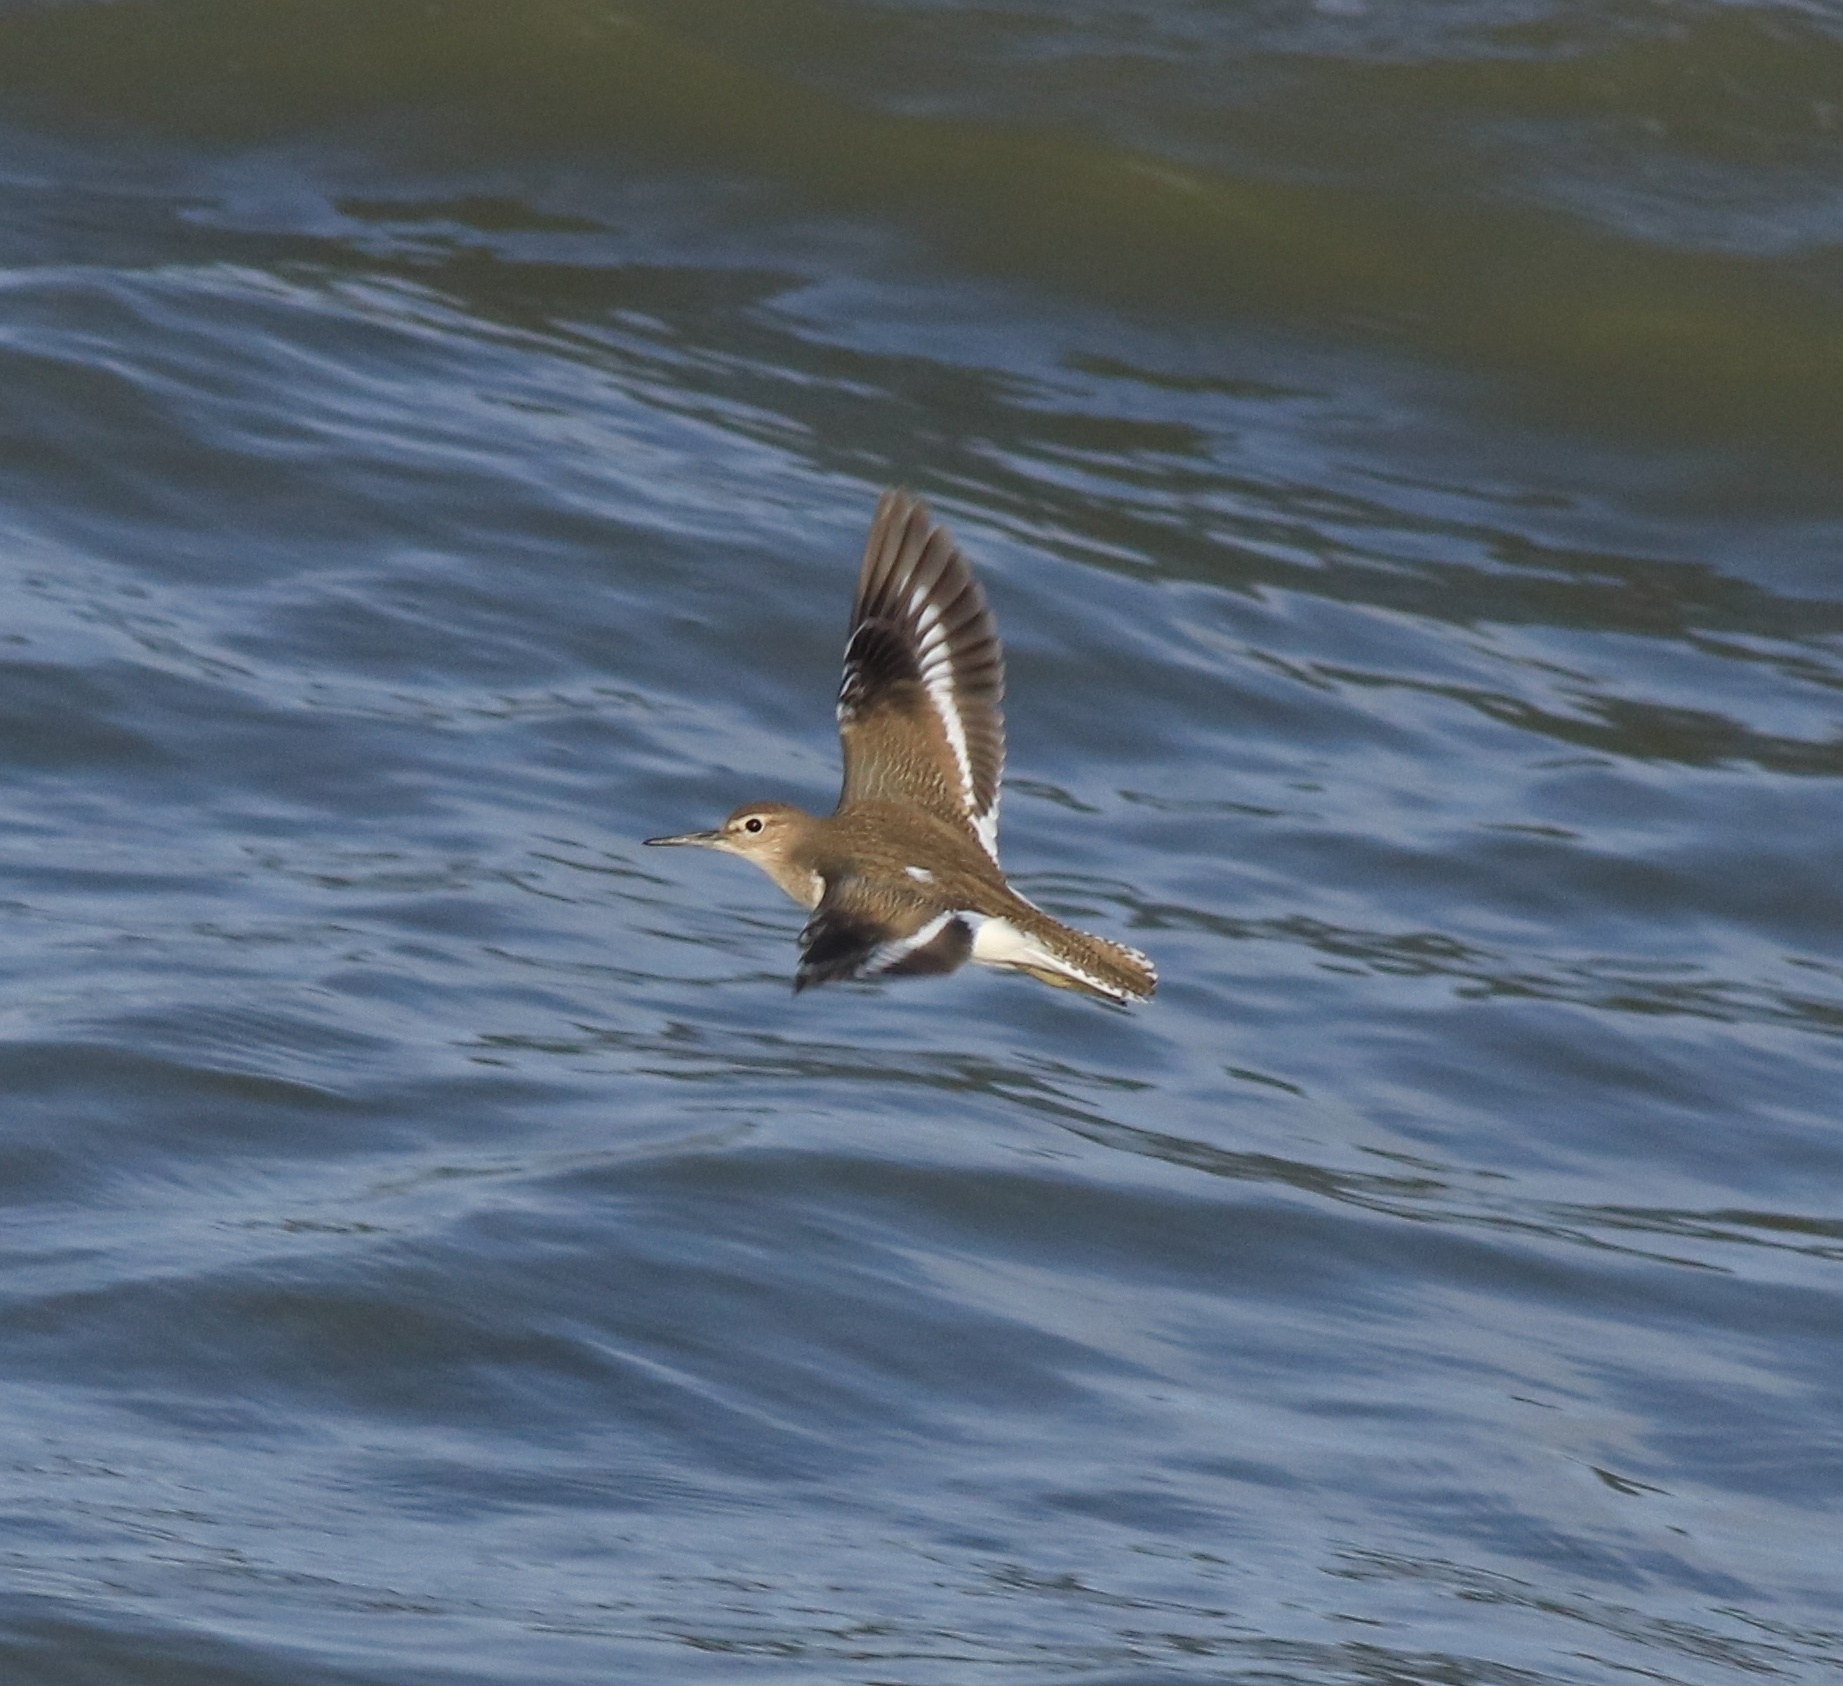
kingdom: Animalia
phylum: Chordata
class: Aves
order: Charadriiformes
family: Scolopacidae
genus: Actitis
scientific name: Actitis hypoleucos
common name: Common sandpiper
